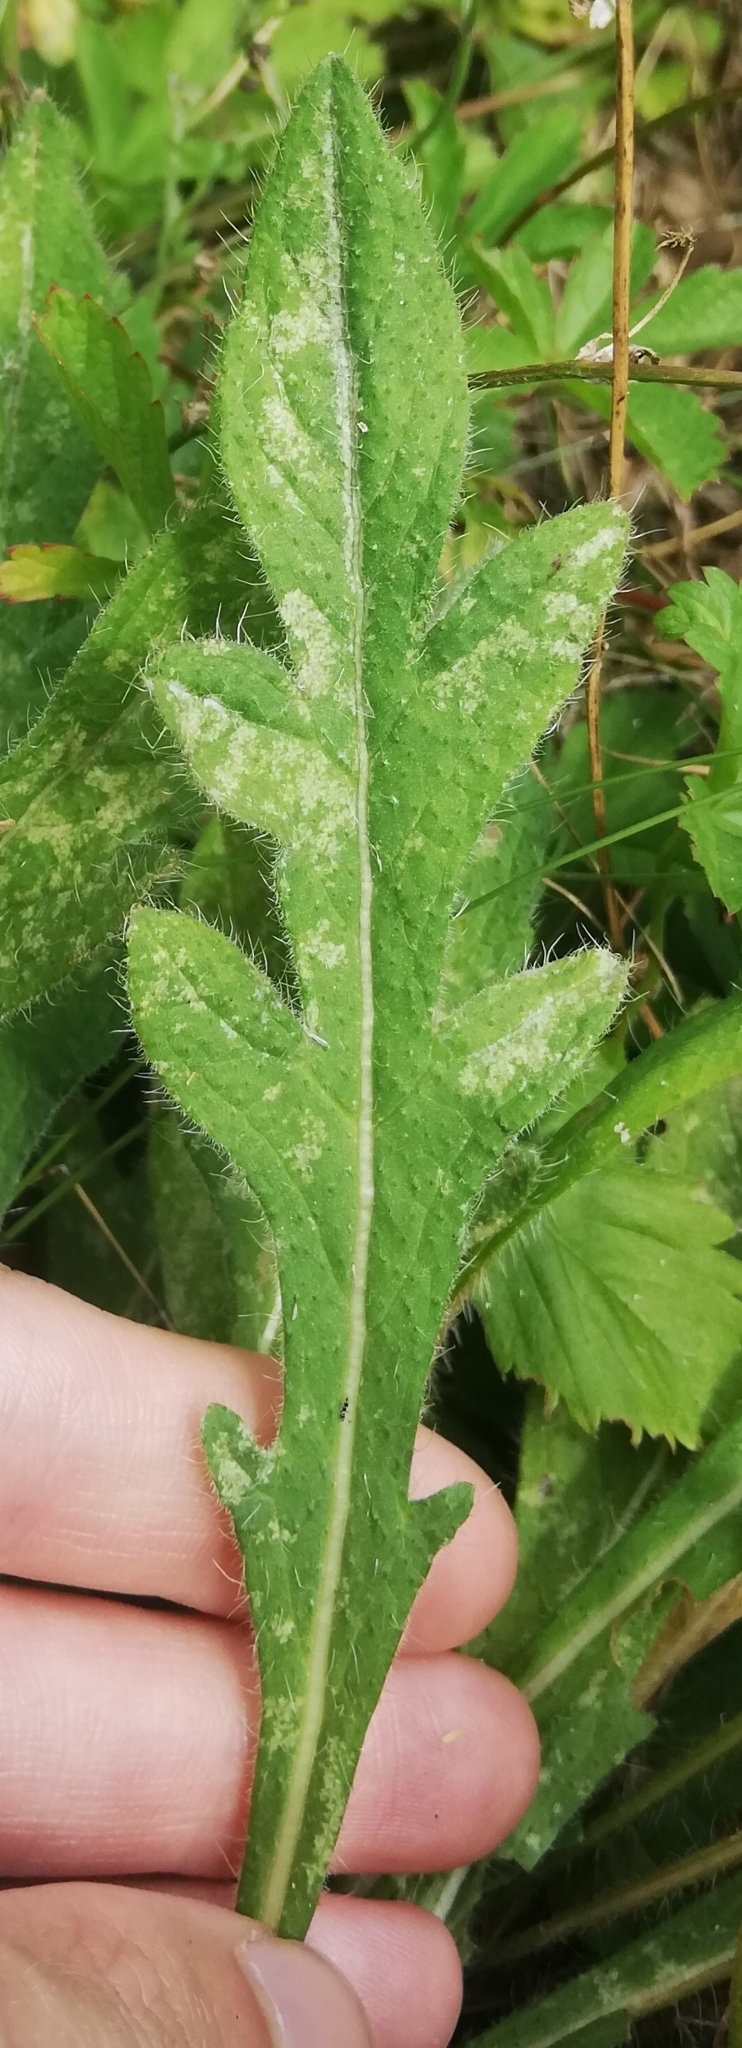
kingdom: Plantae
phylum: Tracheophyta
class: Magnoliopsida
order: Dipsacales
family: Caprifoliaceae
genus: Knautia
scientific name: Knautia arvensis
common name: Field scabiosa
